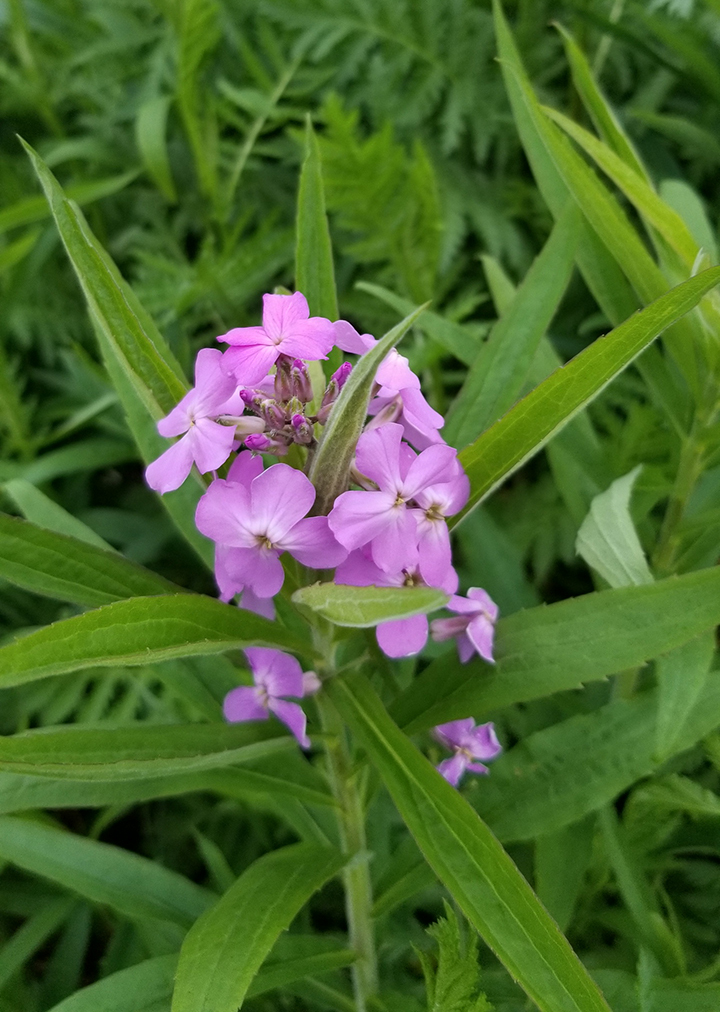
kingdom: Plantae
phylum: Tracheophyta
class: Magnoliopsida
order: Brassicales
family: Brassicaceae
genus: Hesperis
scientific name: Hesperis matronalis
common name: Dame's-violet
